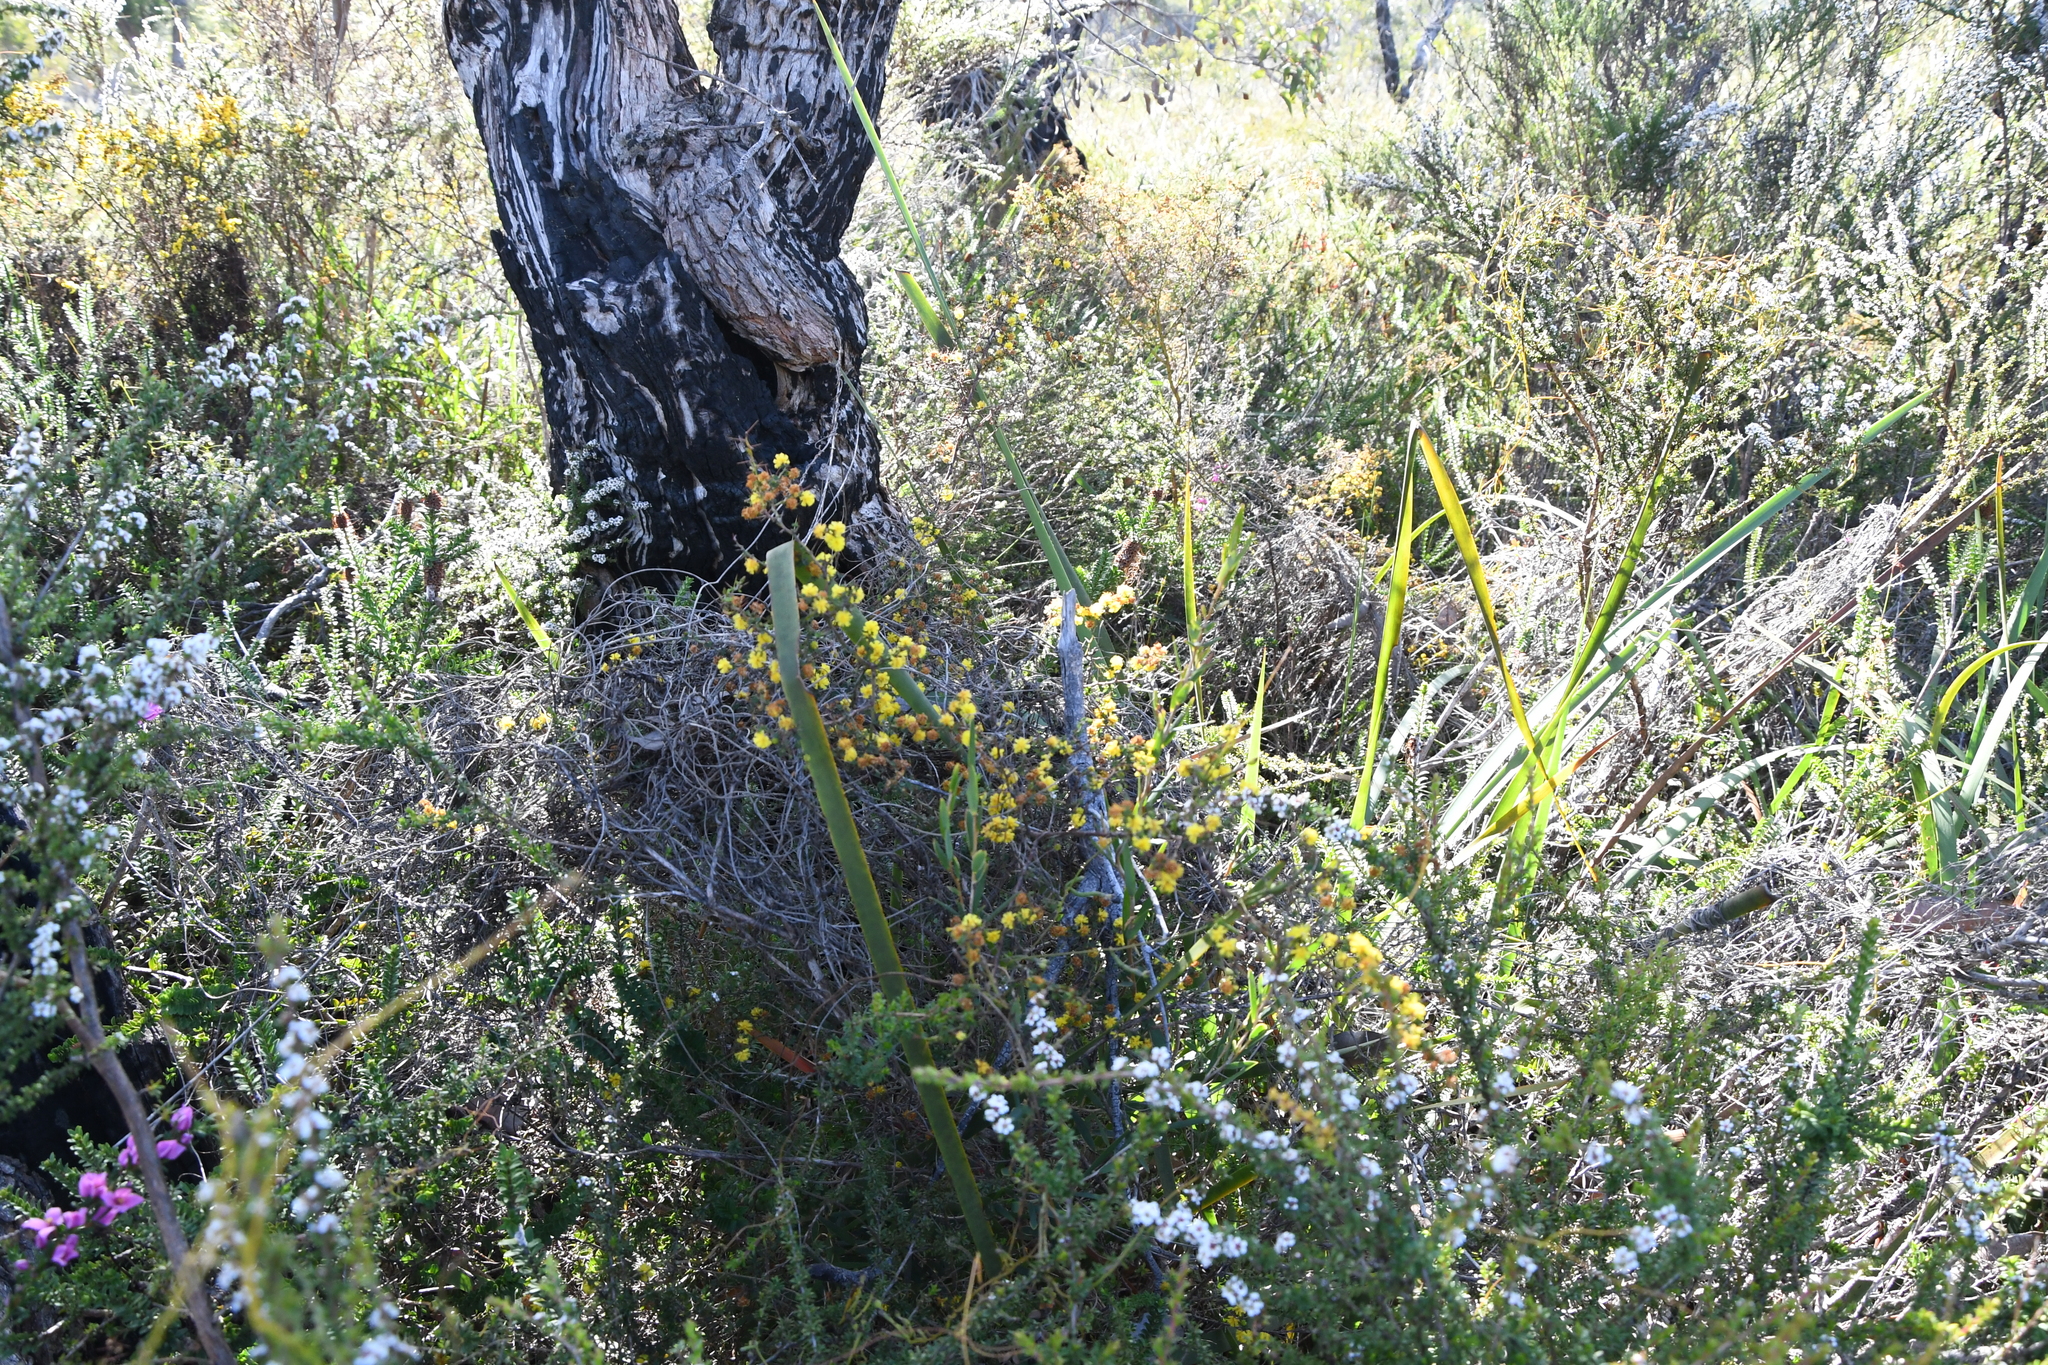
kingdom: Plantae
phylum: Tracheophyta
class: Magnoliopsida
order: Fabales
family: Fabaceae
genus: Acacia
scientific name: Acacia pulchella
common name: Prickly moses
